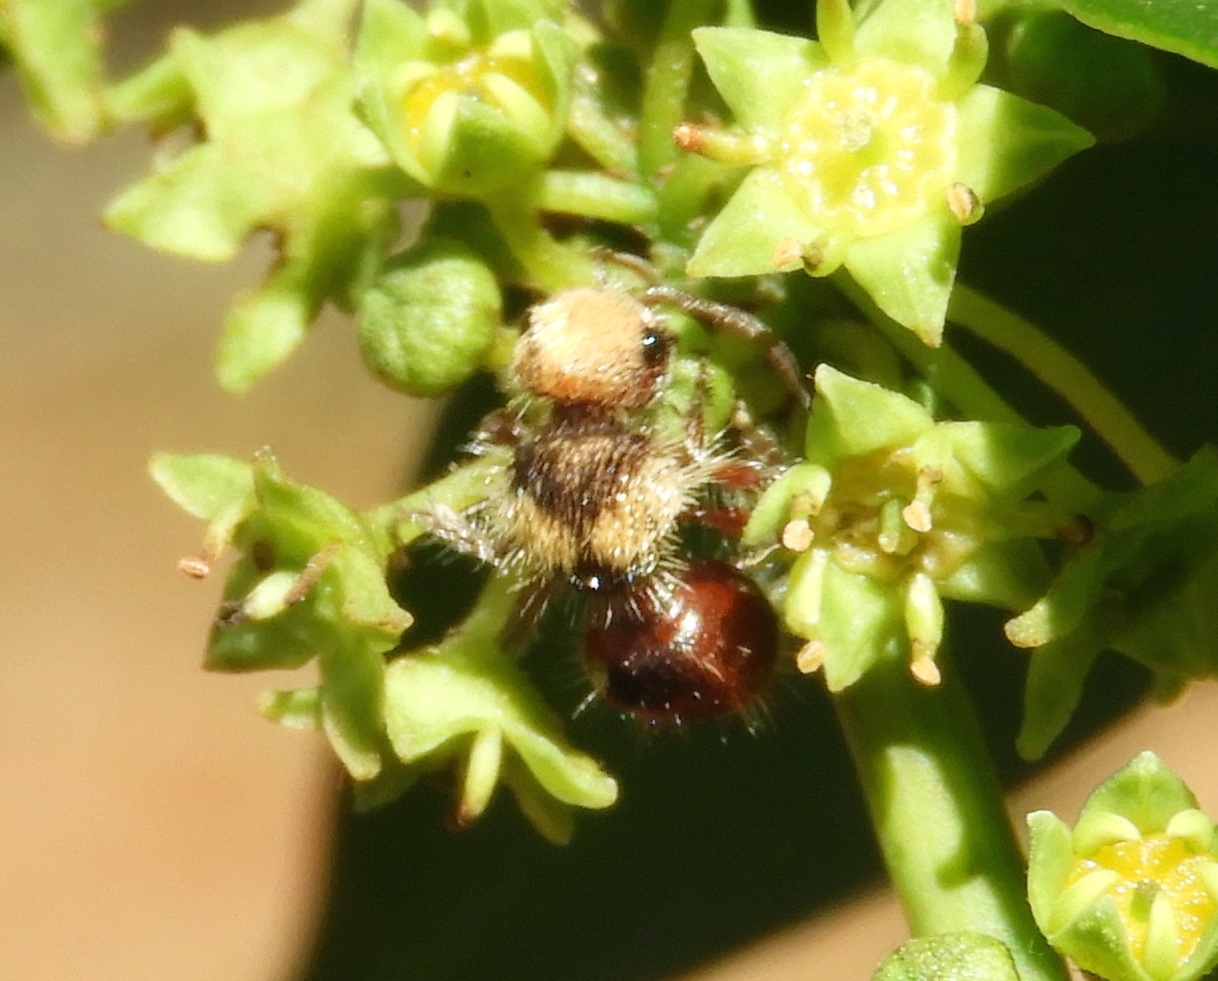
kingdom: Animalia
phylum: Arthropoda
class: Insecta
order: Hymenoptera
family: Mutillidae
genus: Dasymutilla
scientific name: Dasymutilla foxi
